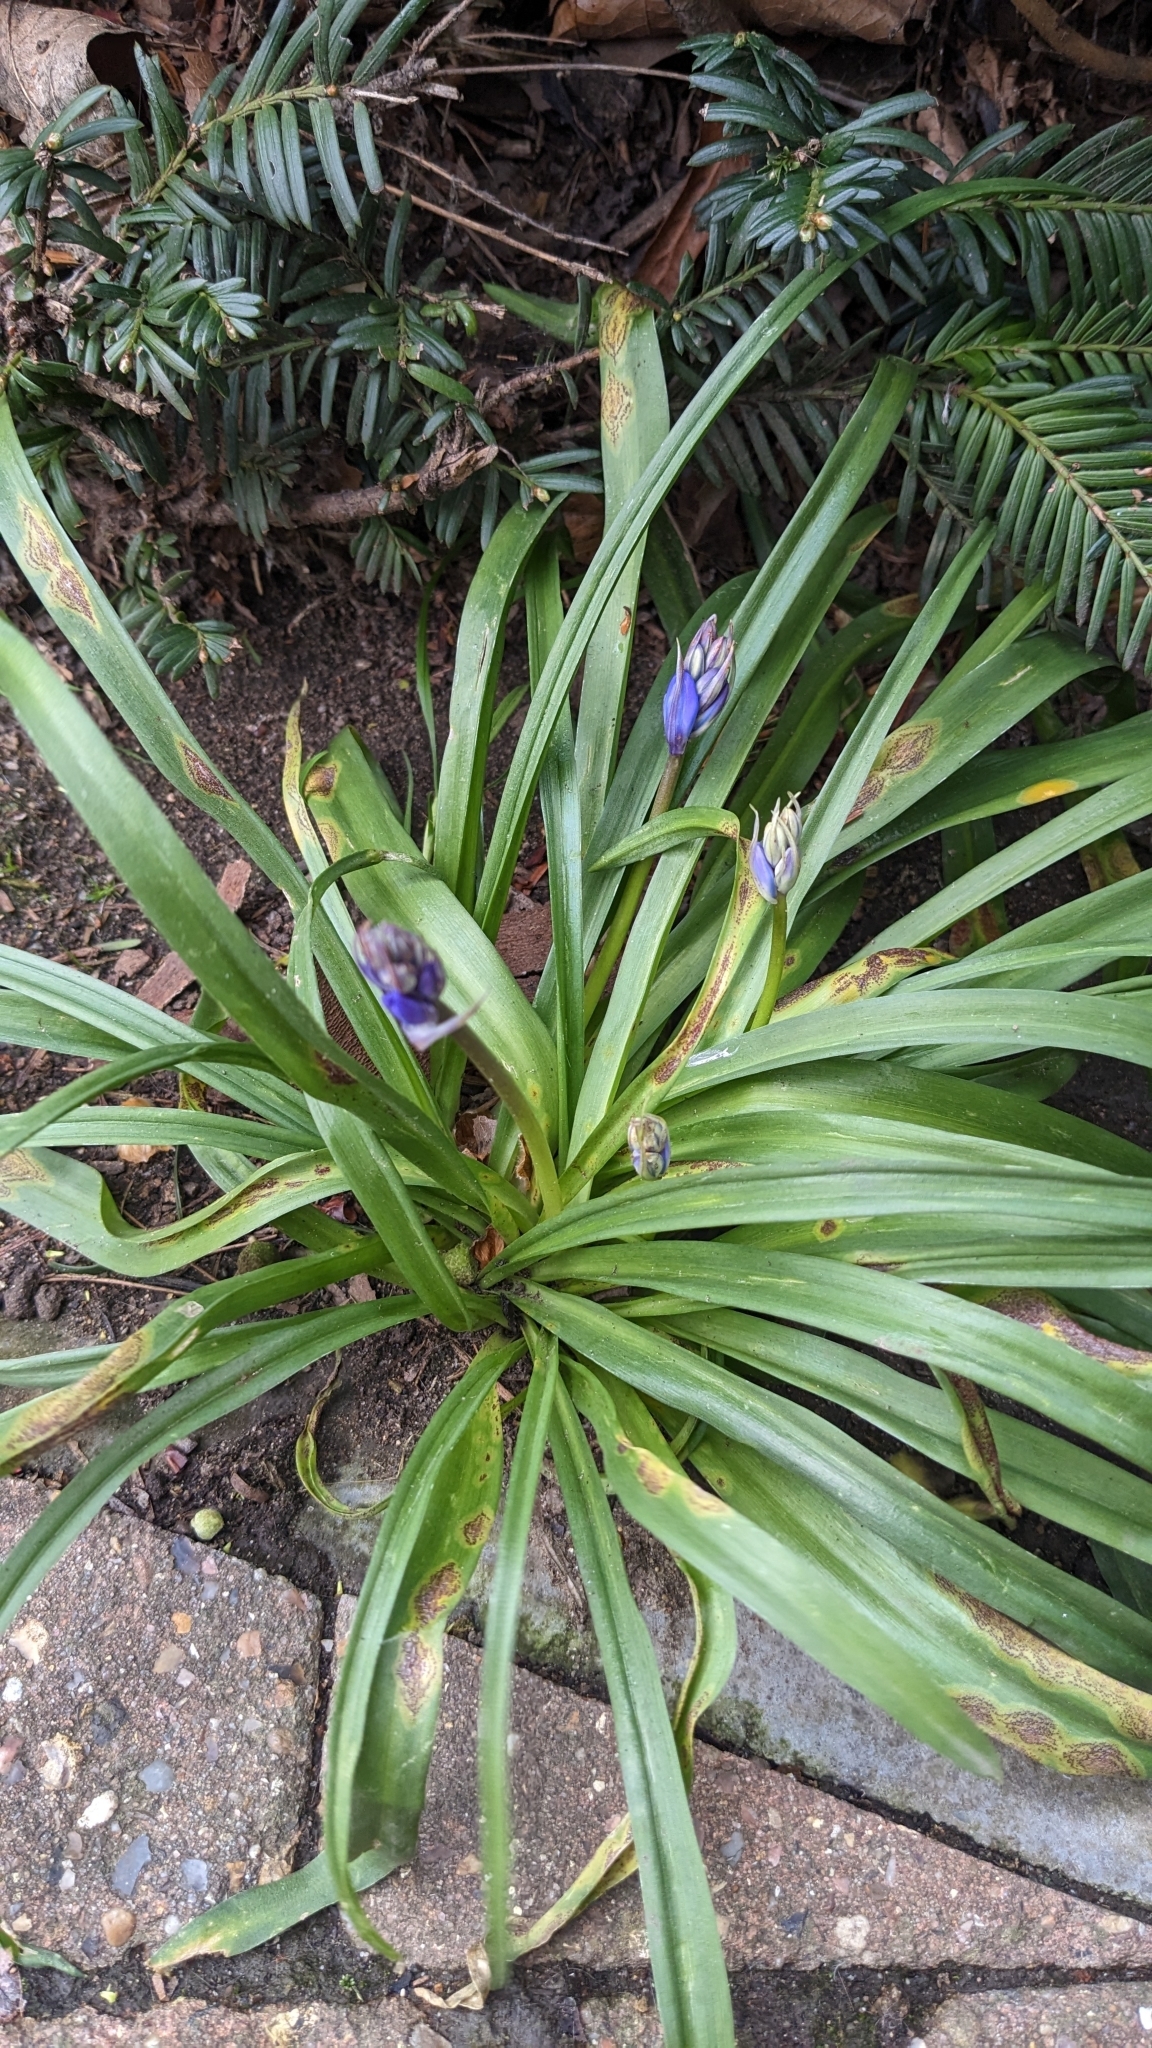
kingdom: Fungi
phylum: Basidiomycota
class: Pucciniomycetes
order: Pucciniales
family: Pucciniaceae
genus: Uromyces
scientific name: Uromyces hyacinthi
